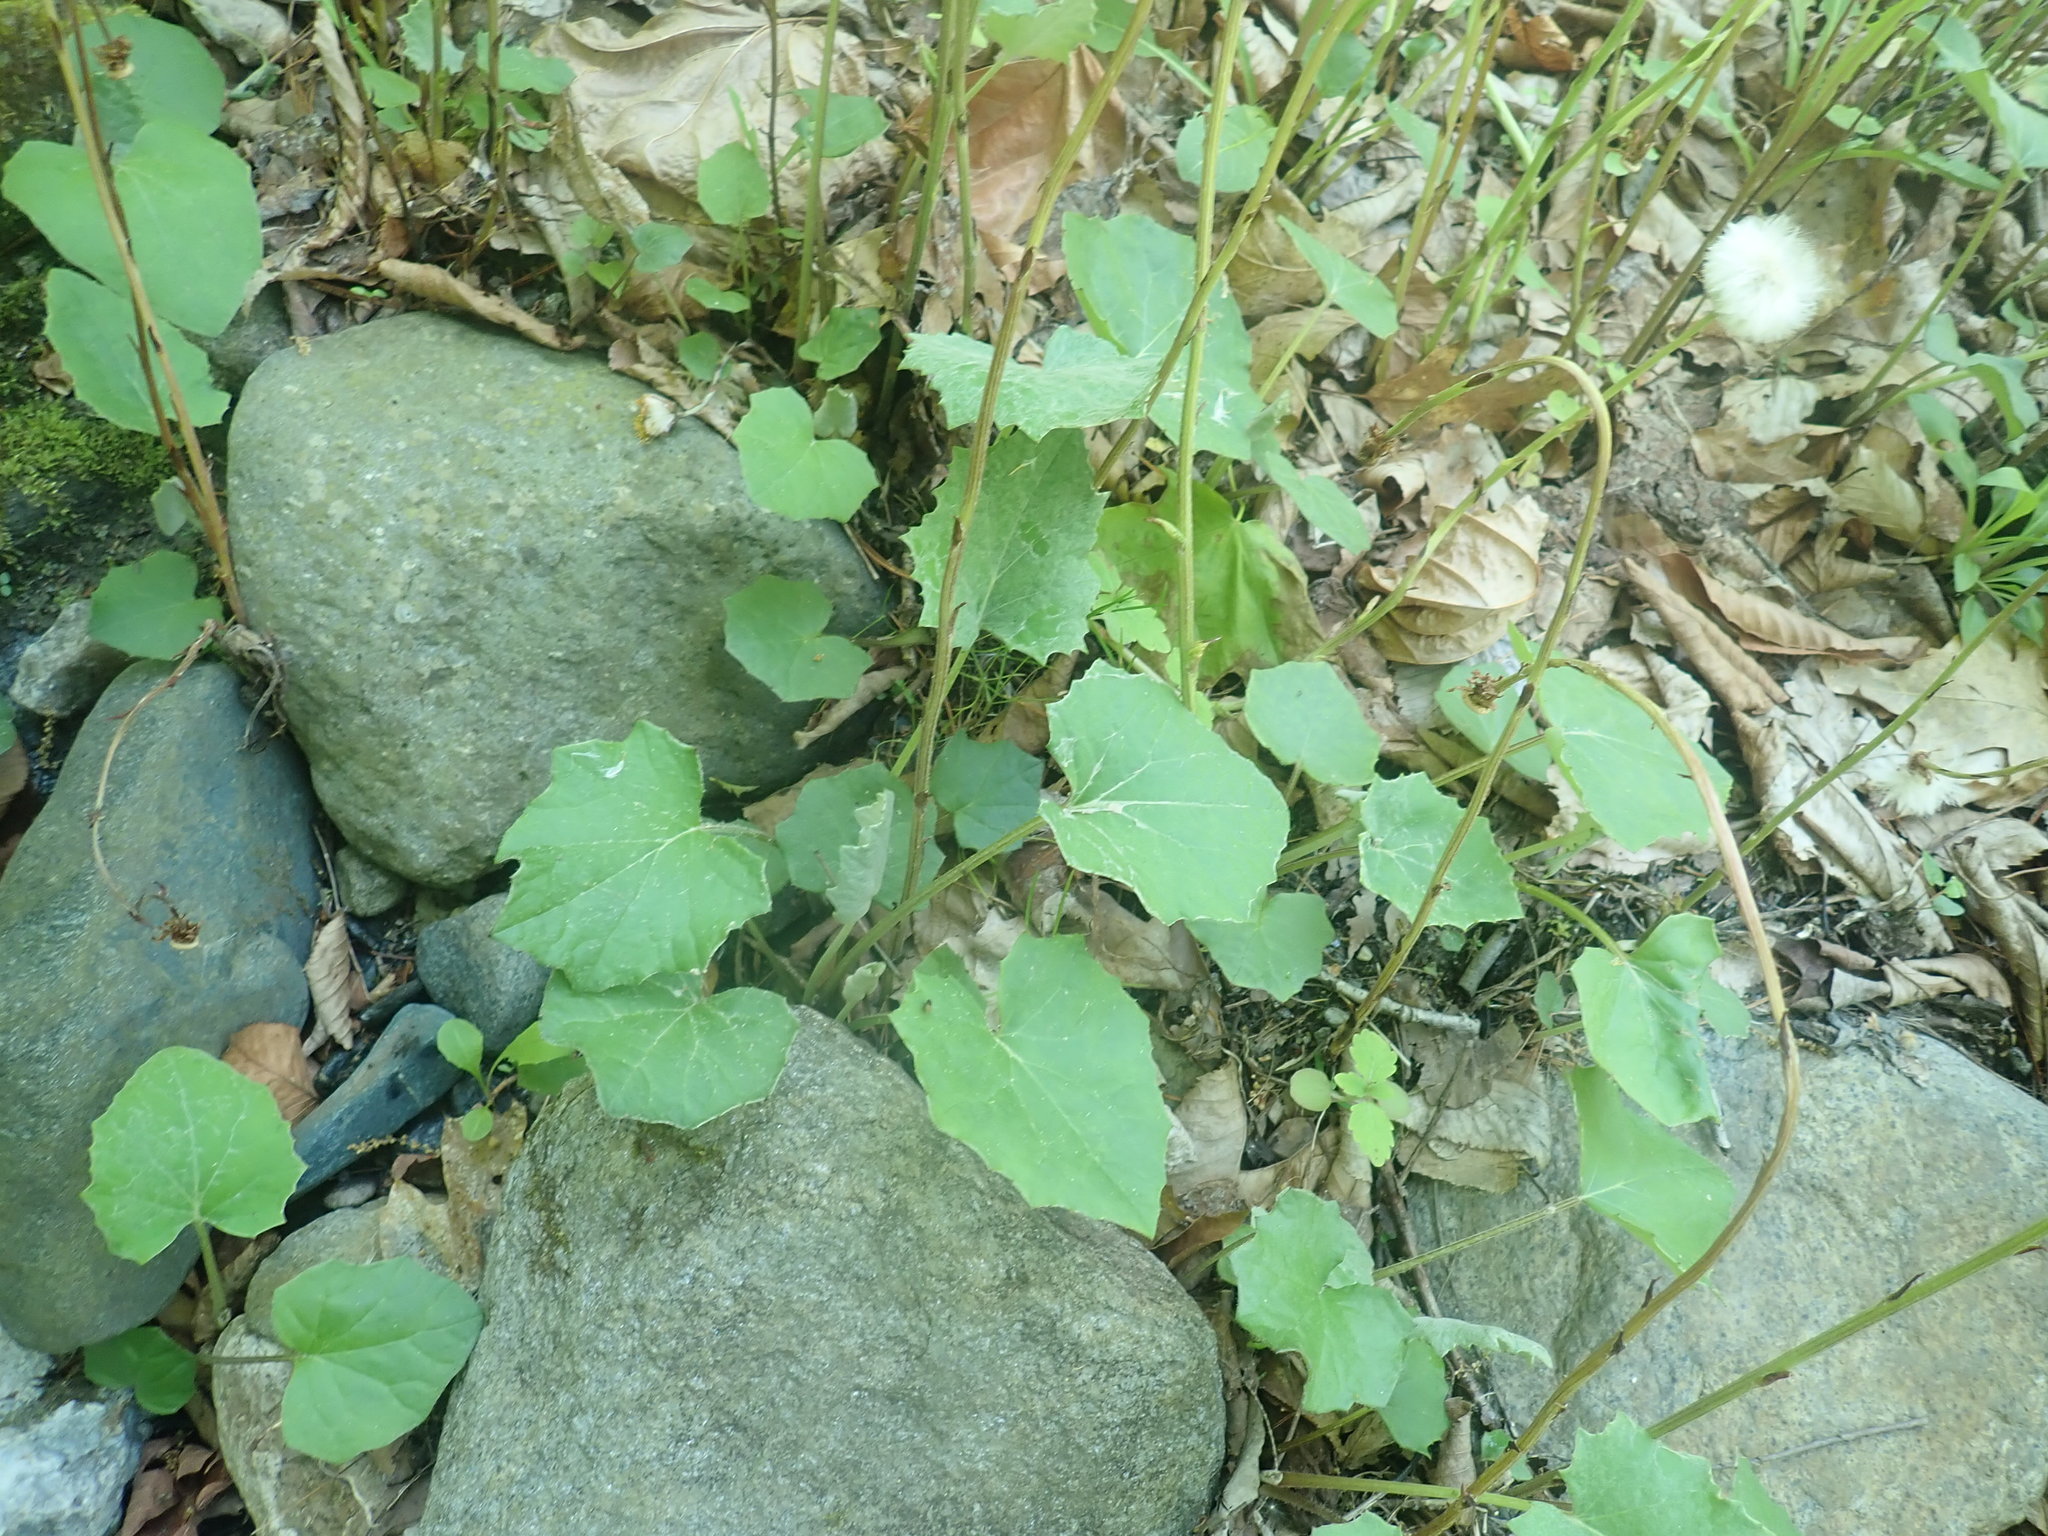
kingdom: Plantae
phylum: Tracheophyta
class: Magnoliopsida
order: Asterales
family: Asteraceae
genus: Tussilago
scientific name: Tussilago farfara
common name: Coltsfoot
